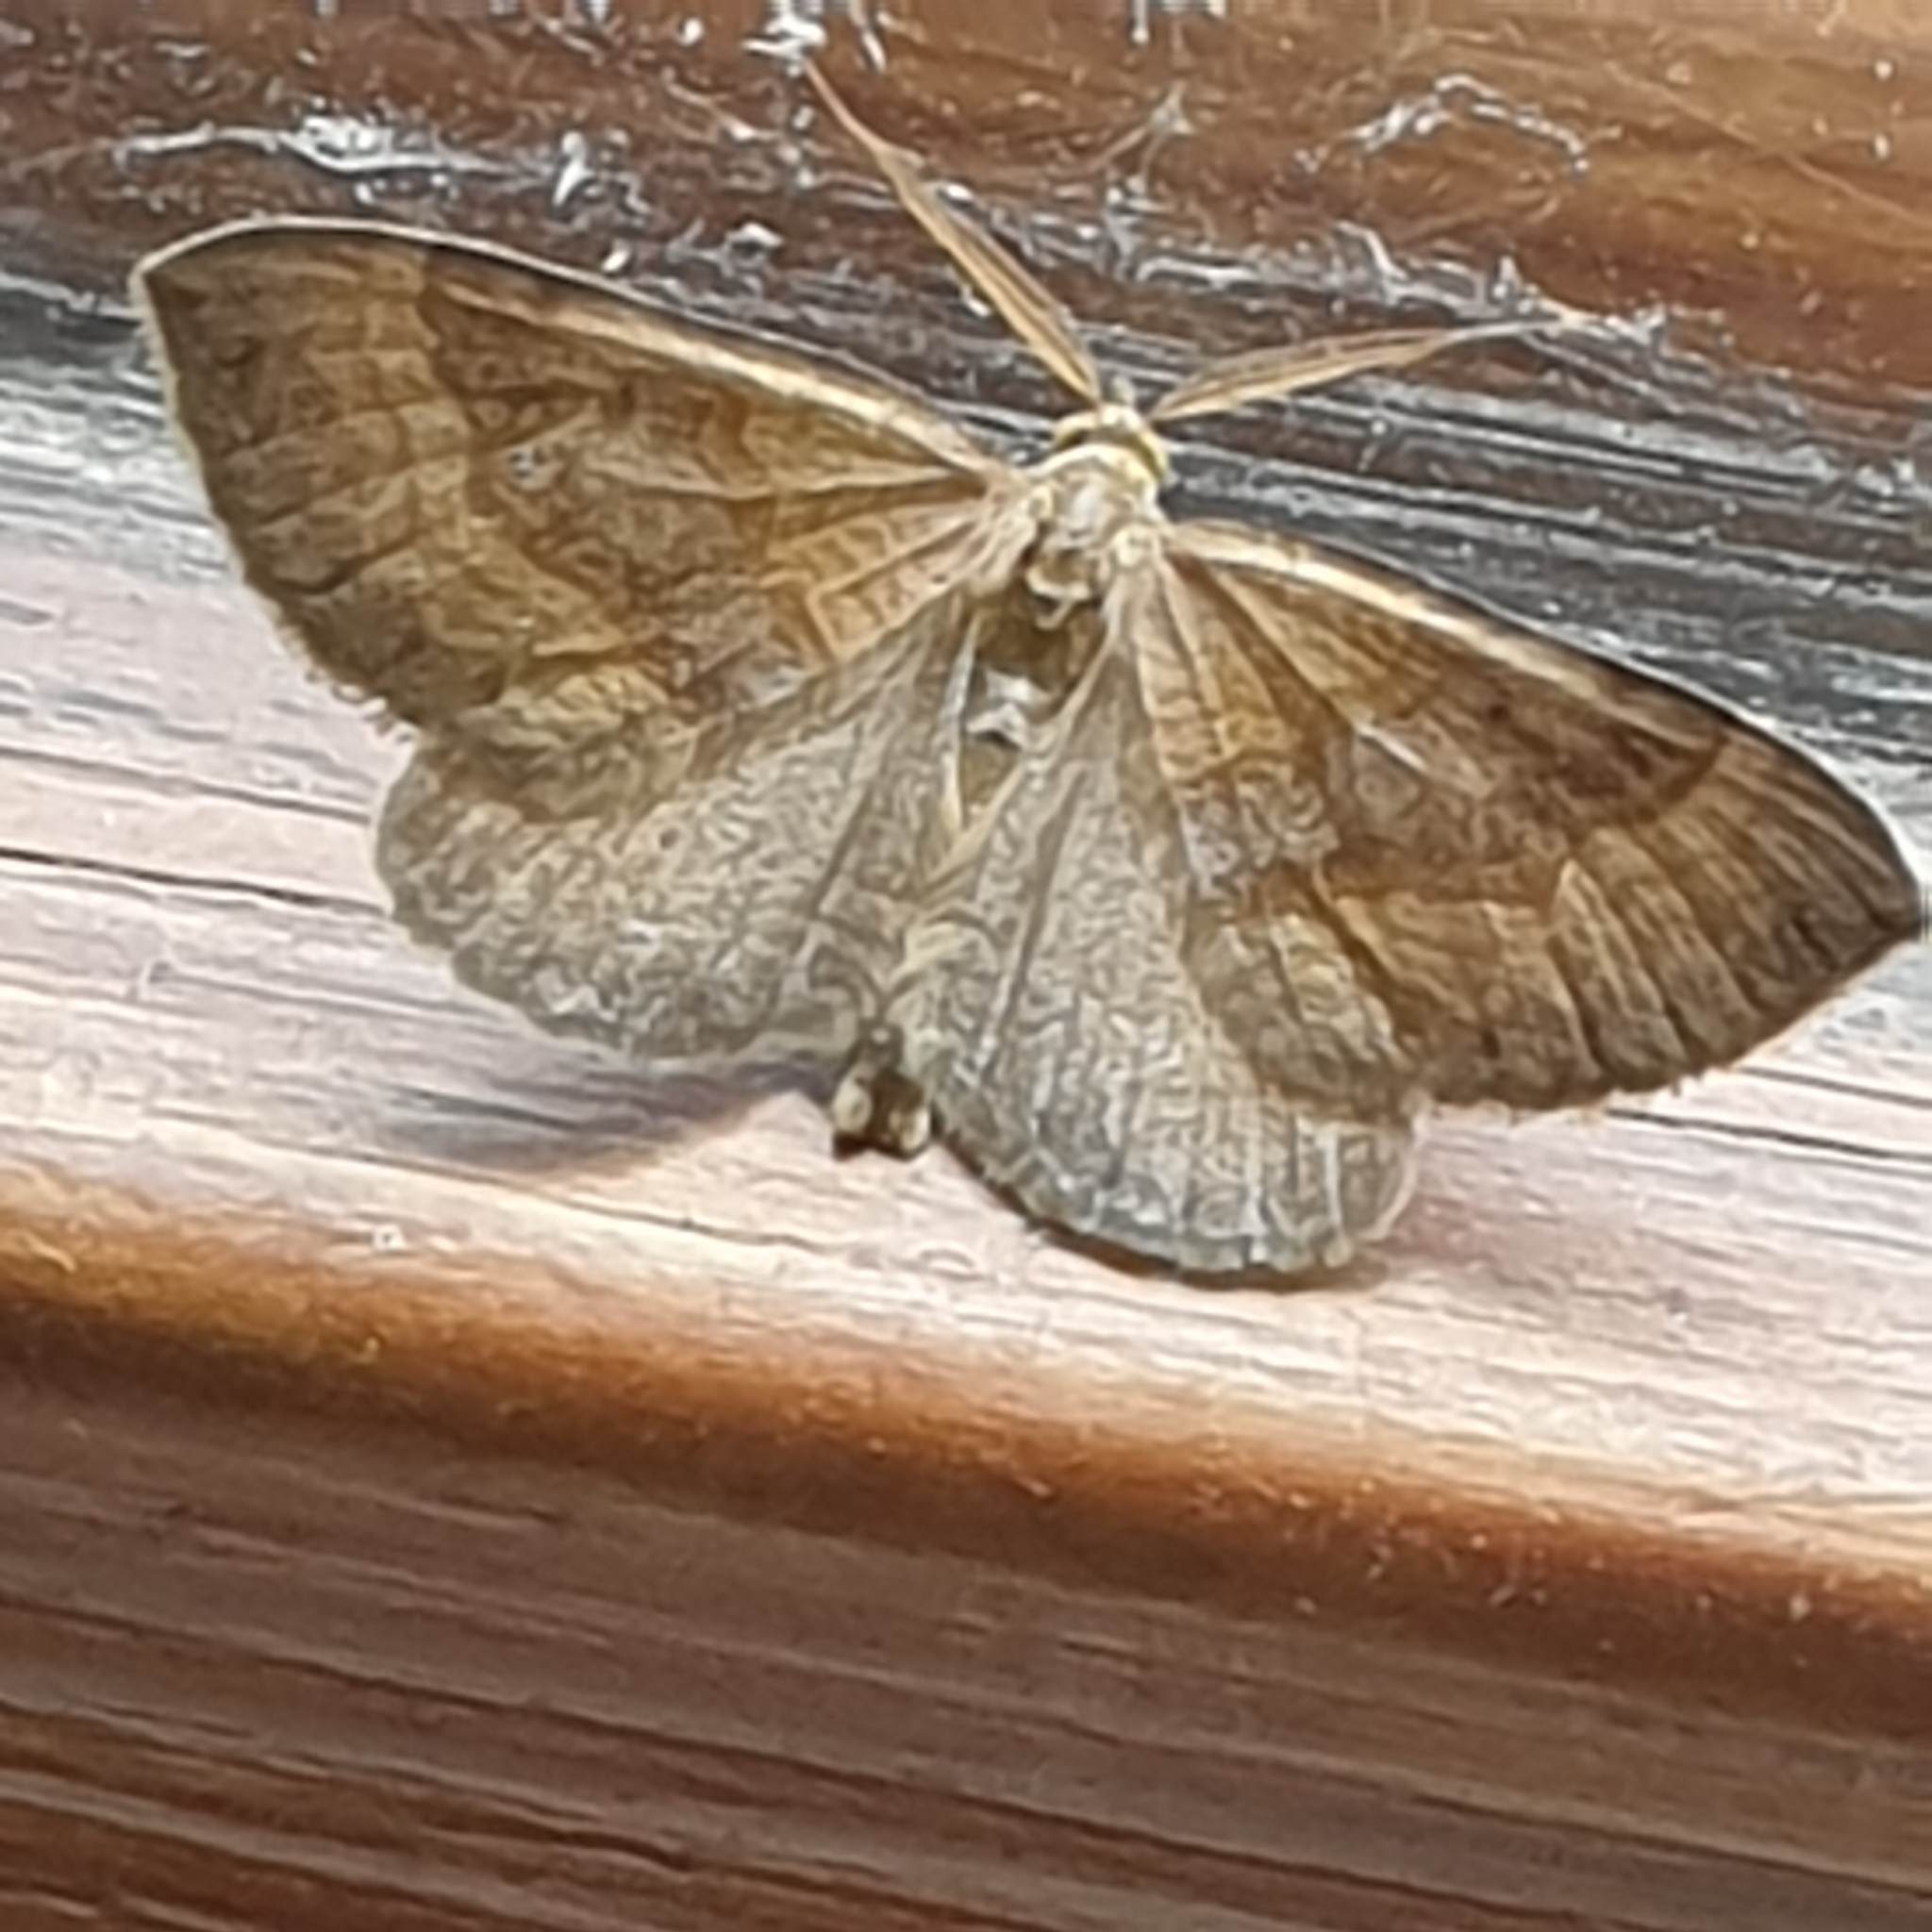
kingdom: Animalia
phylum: Arthropoda
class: Insecta
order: Lepidoptera
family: Geometridae
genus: Scotopteryx
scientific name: Scotopteryx chenopodiata
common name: Shaded broad-bar
